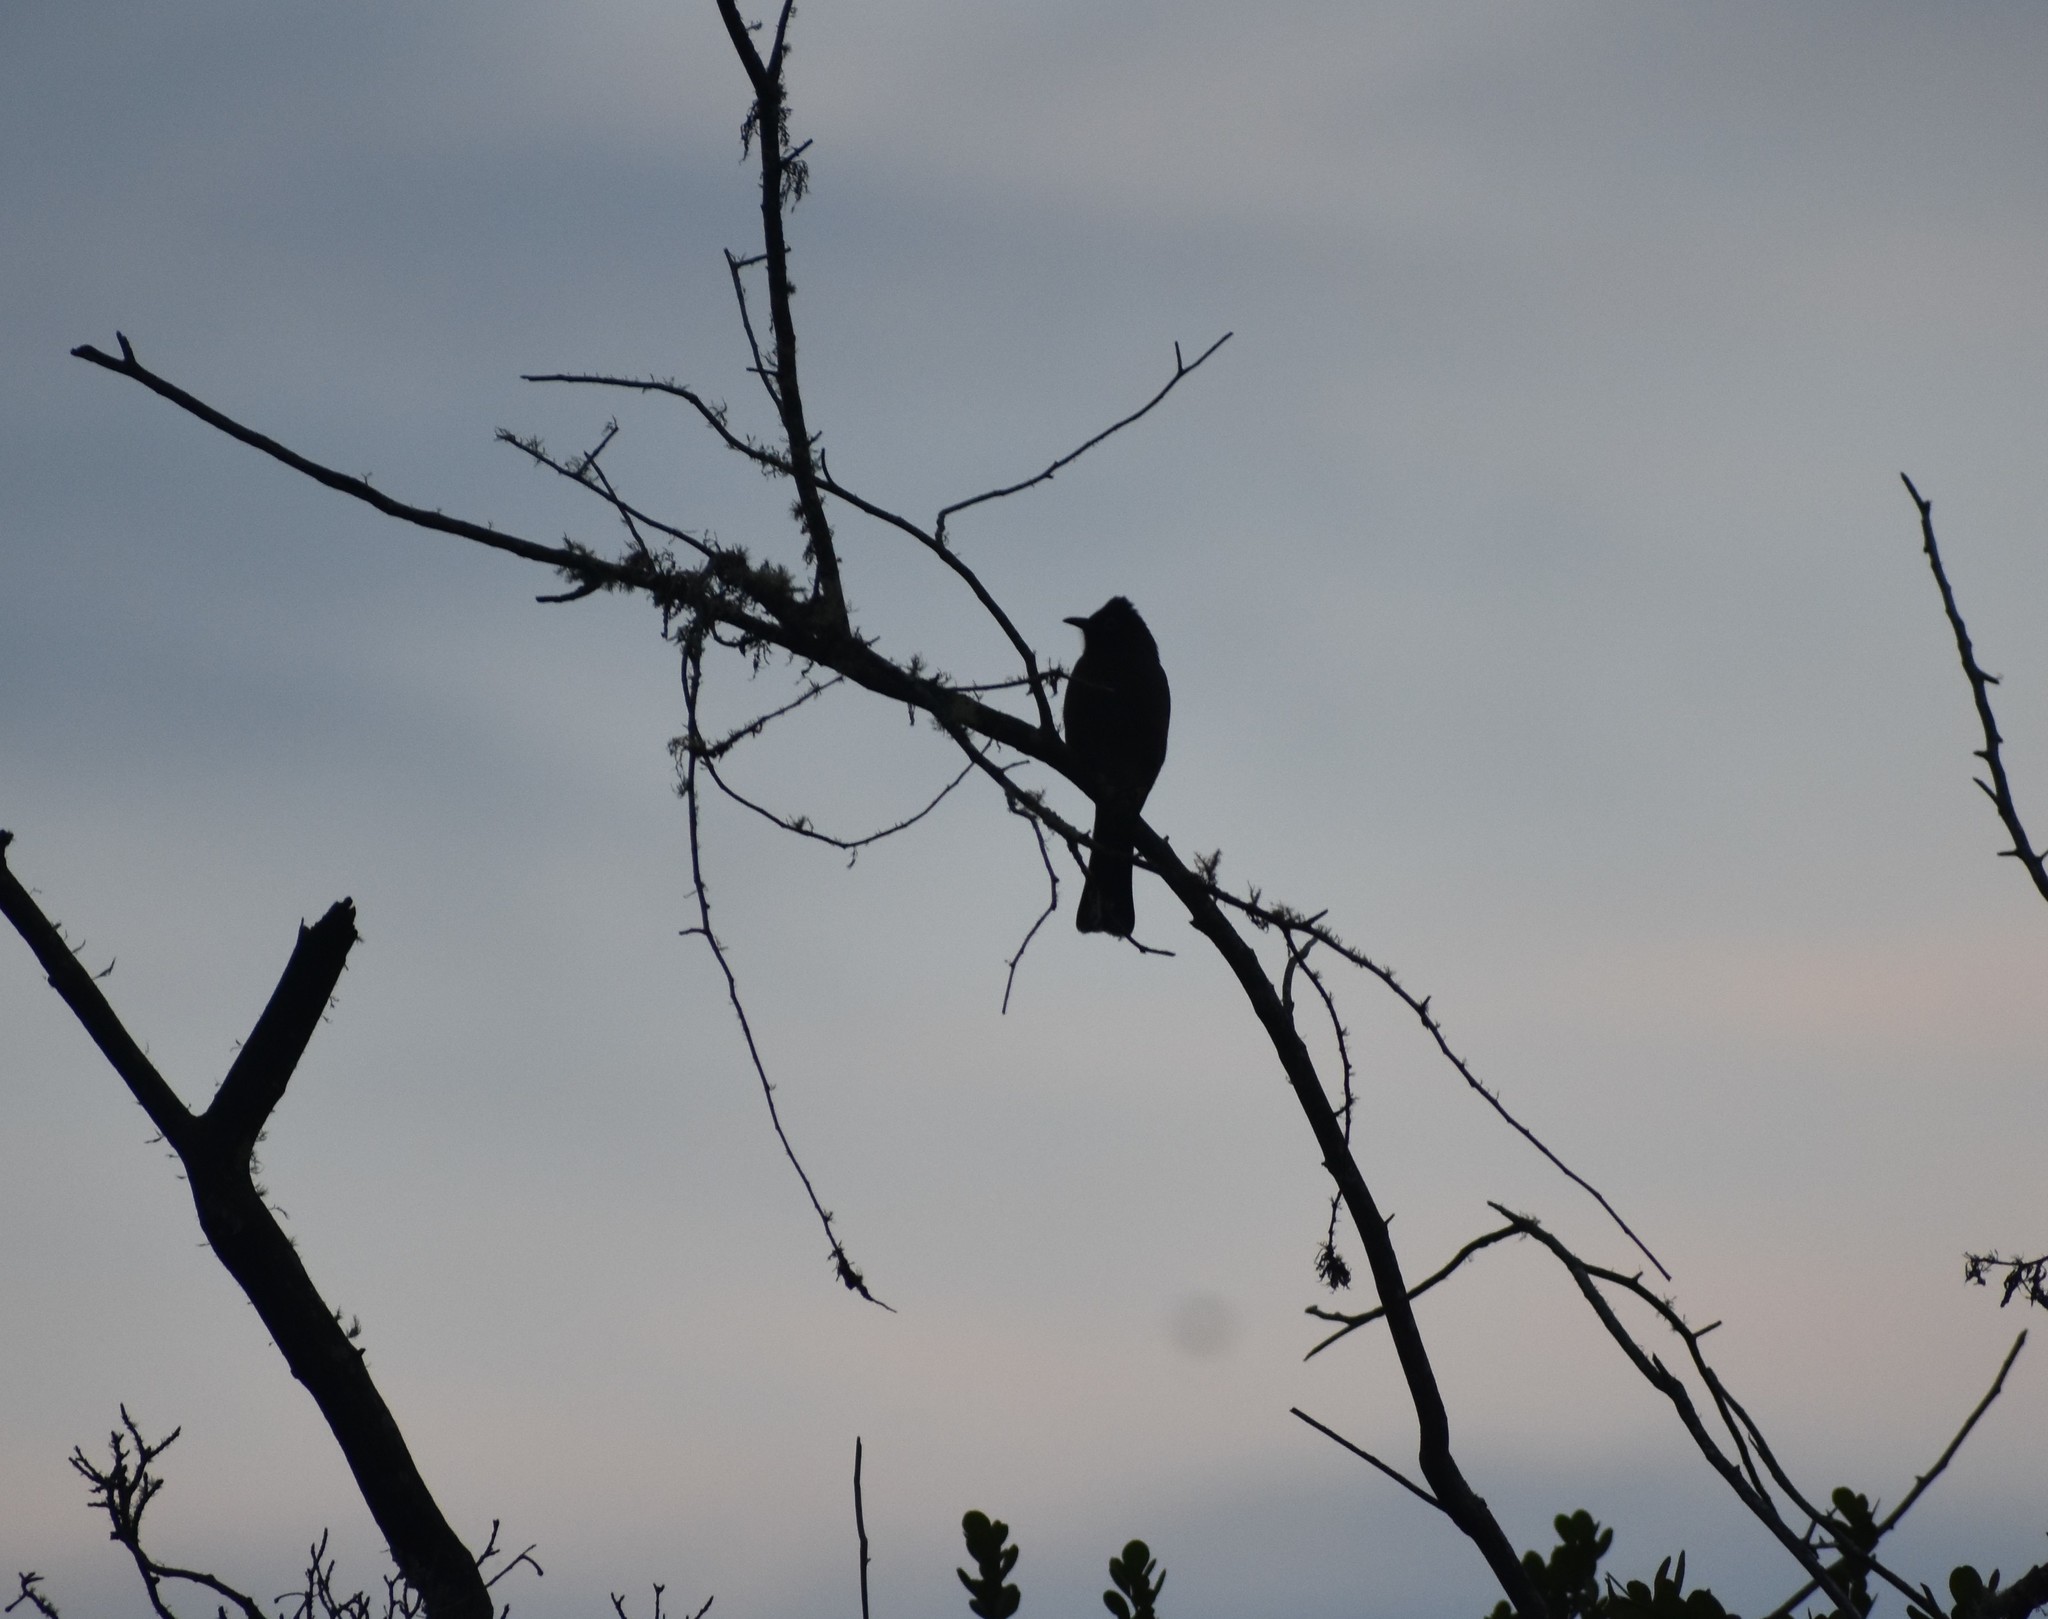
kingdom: Animalia
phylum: Chordata
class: Aves
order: Passeriformes
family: Pycnonotidae
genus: Pycnonotus
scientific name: Pycnonotus capensis
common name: Cape bulbul
